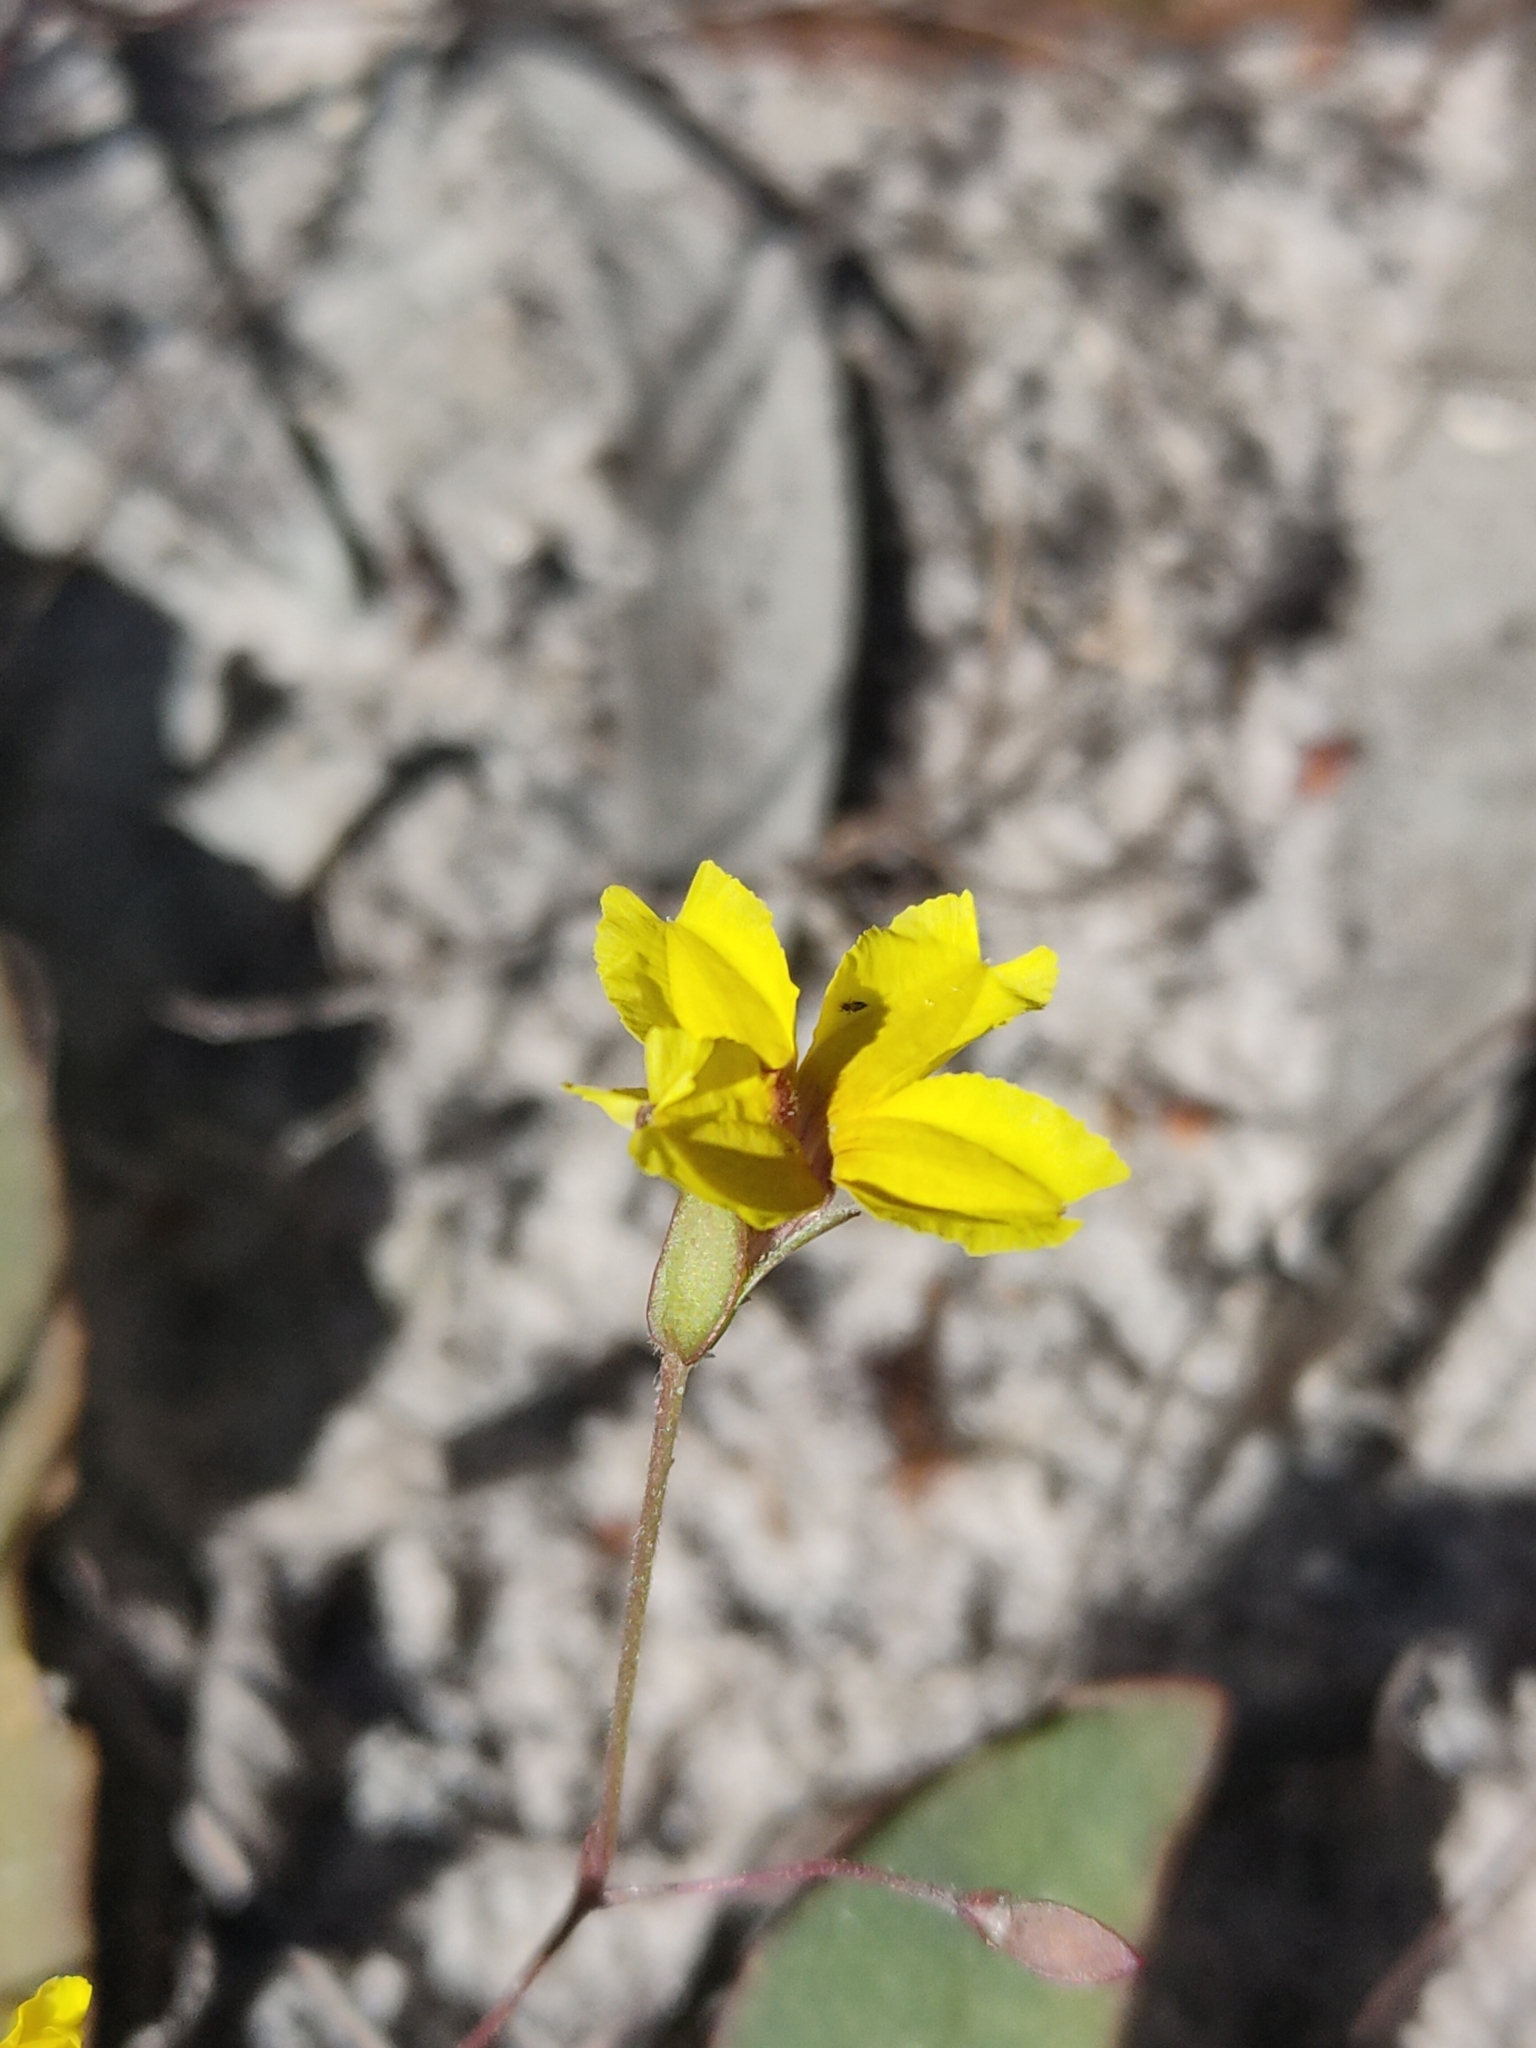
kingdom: Plantae
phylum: Tracheophyta
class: Magnoliopsida
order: Asterales
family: Goodeniaceae
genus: Goodenia
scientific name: Goodenia mystrophylla
